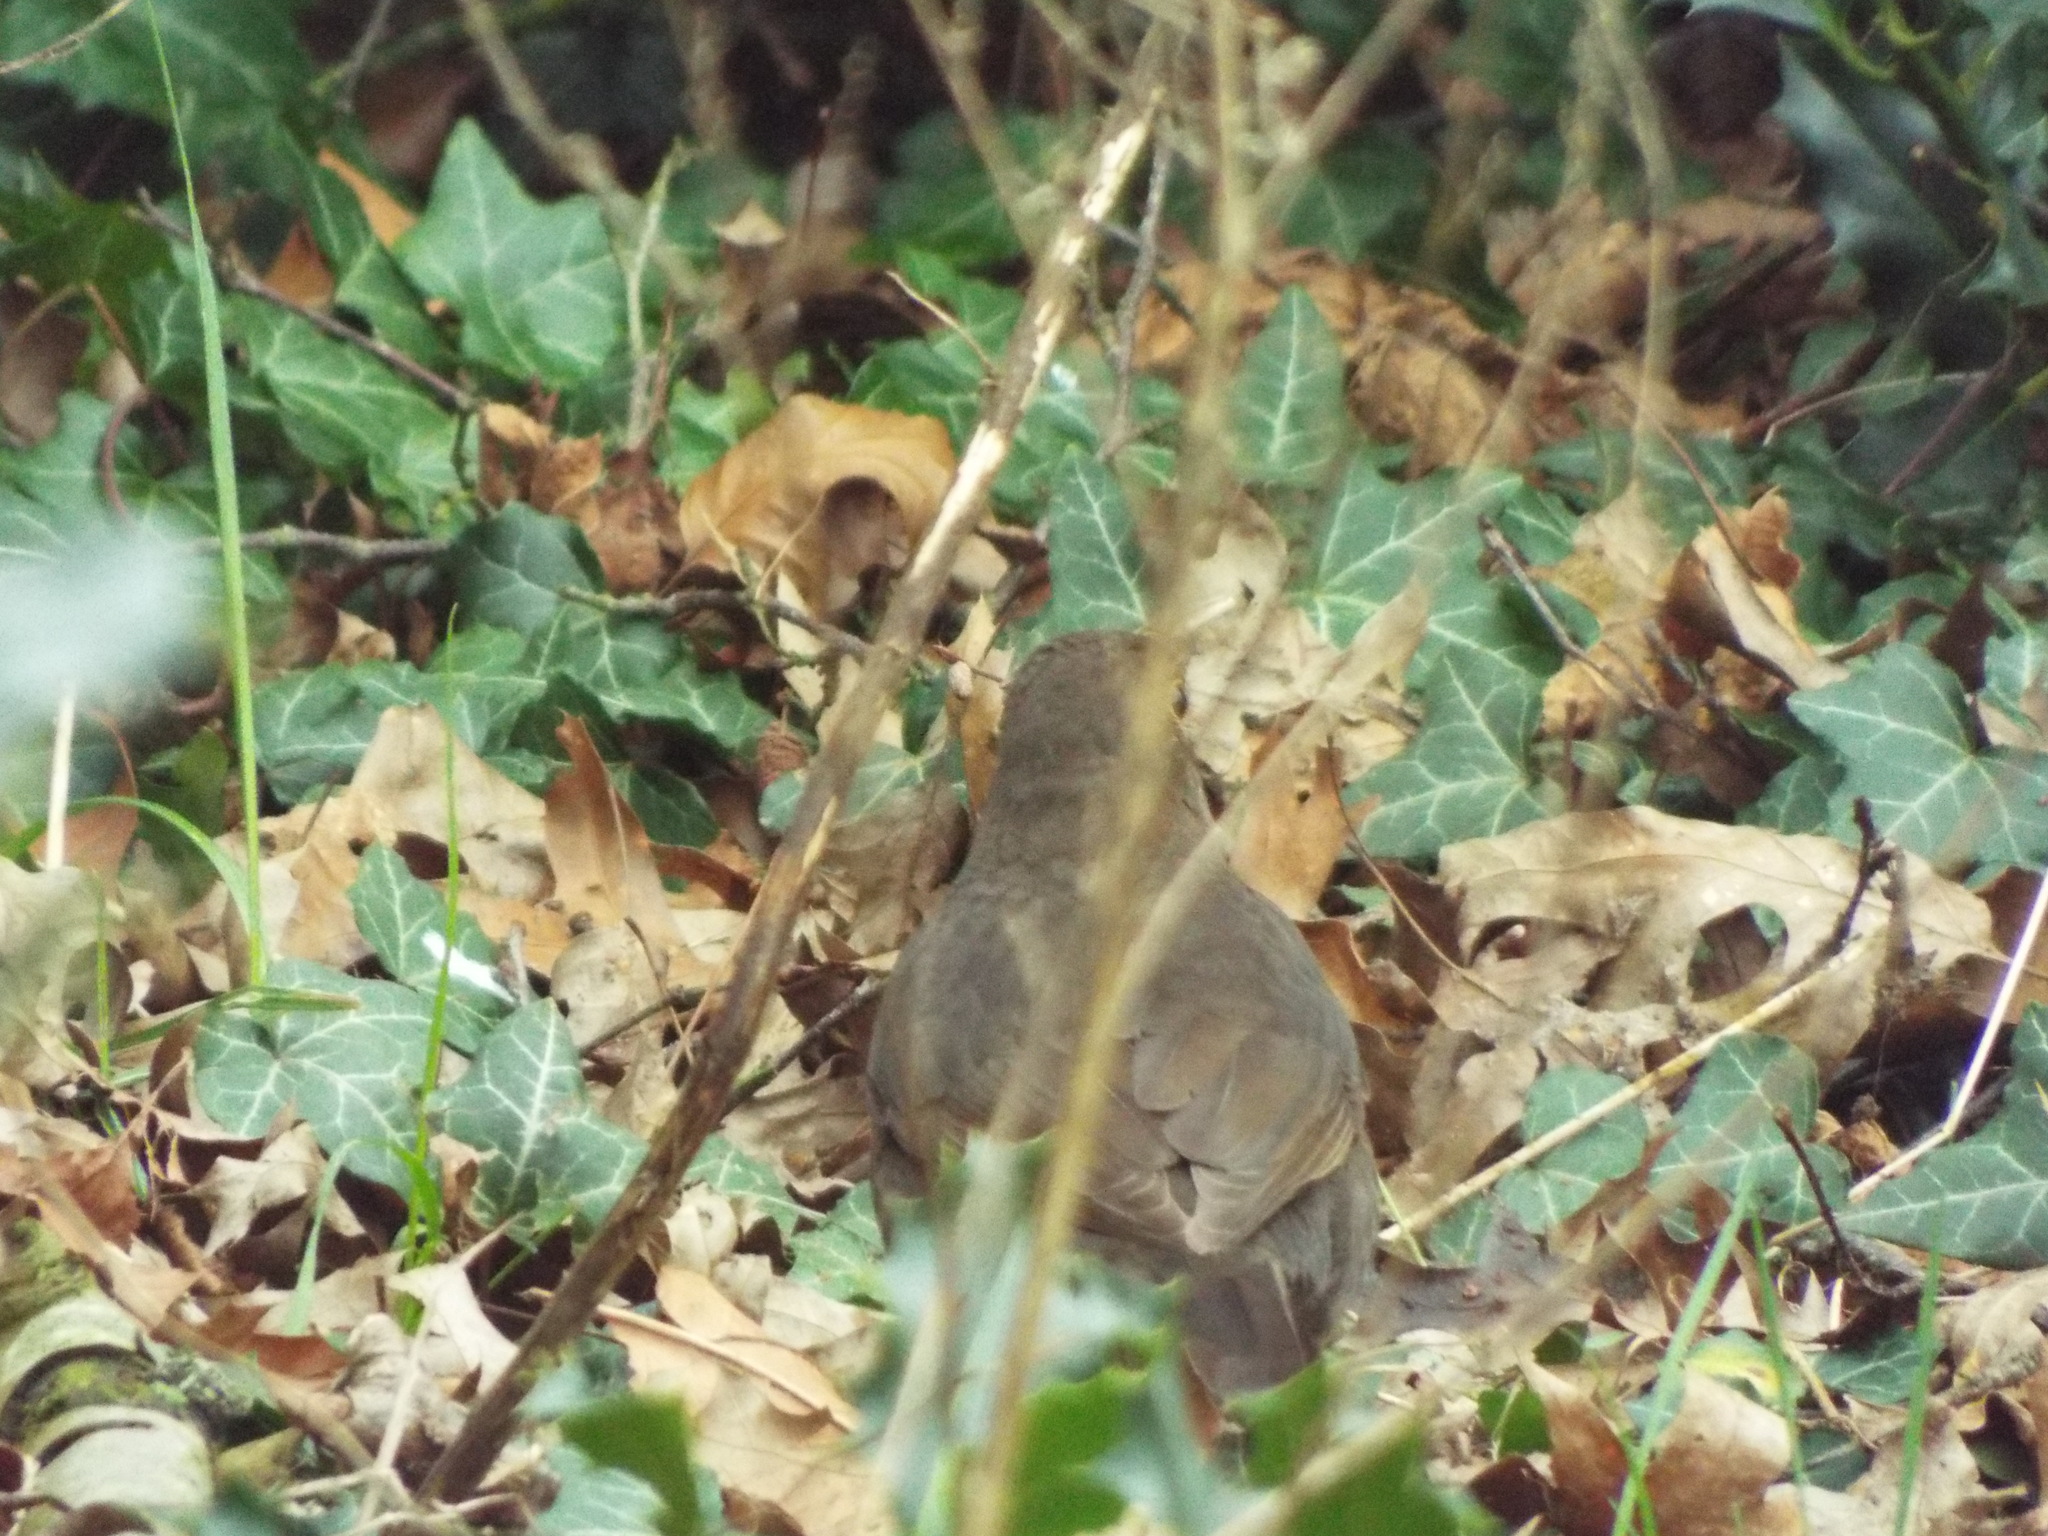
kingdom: Animalia
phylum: Chordata
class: Aves
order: Passeriformes
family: Turdidae
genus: Turdus
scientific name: Turdus merula
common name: Common blackbird
